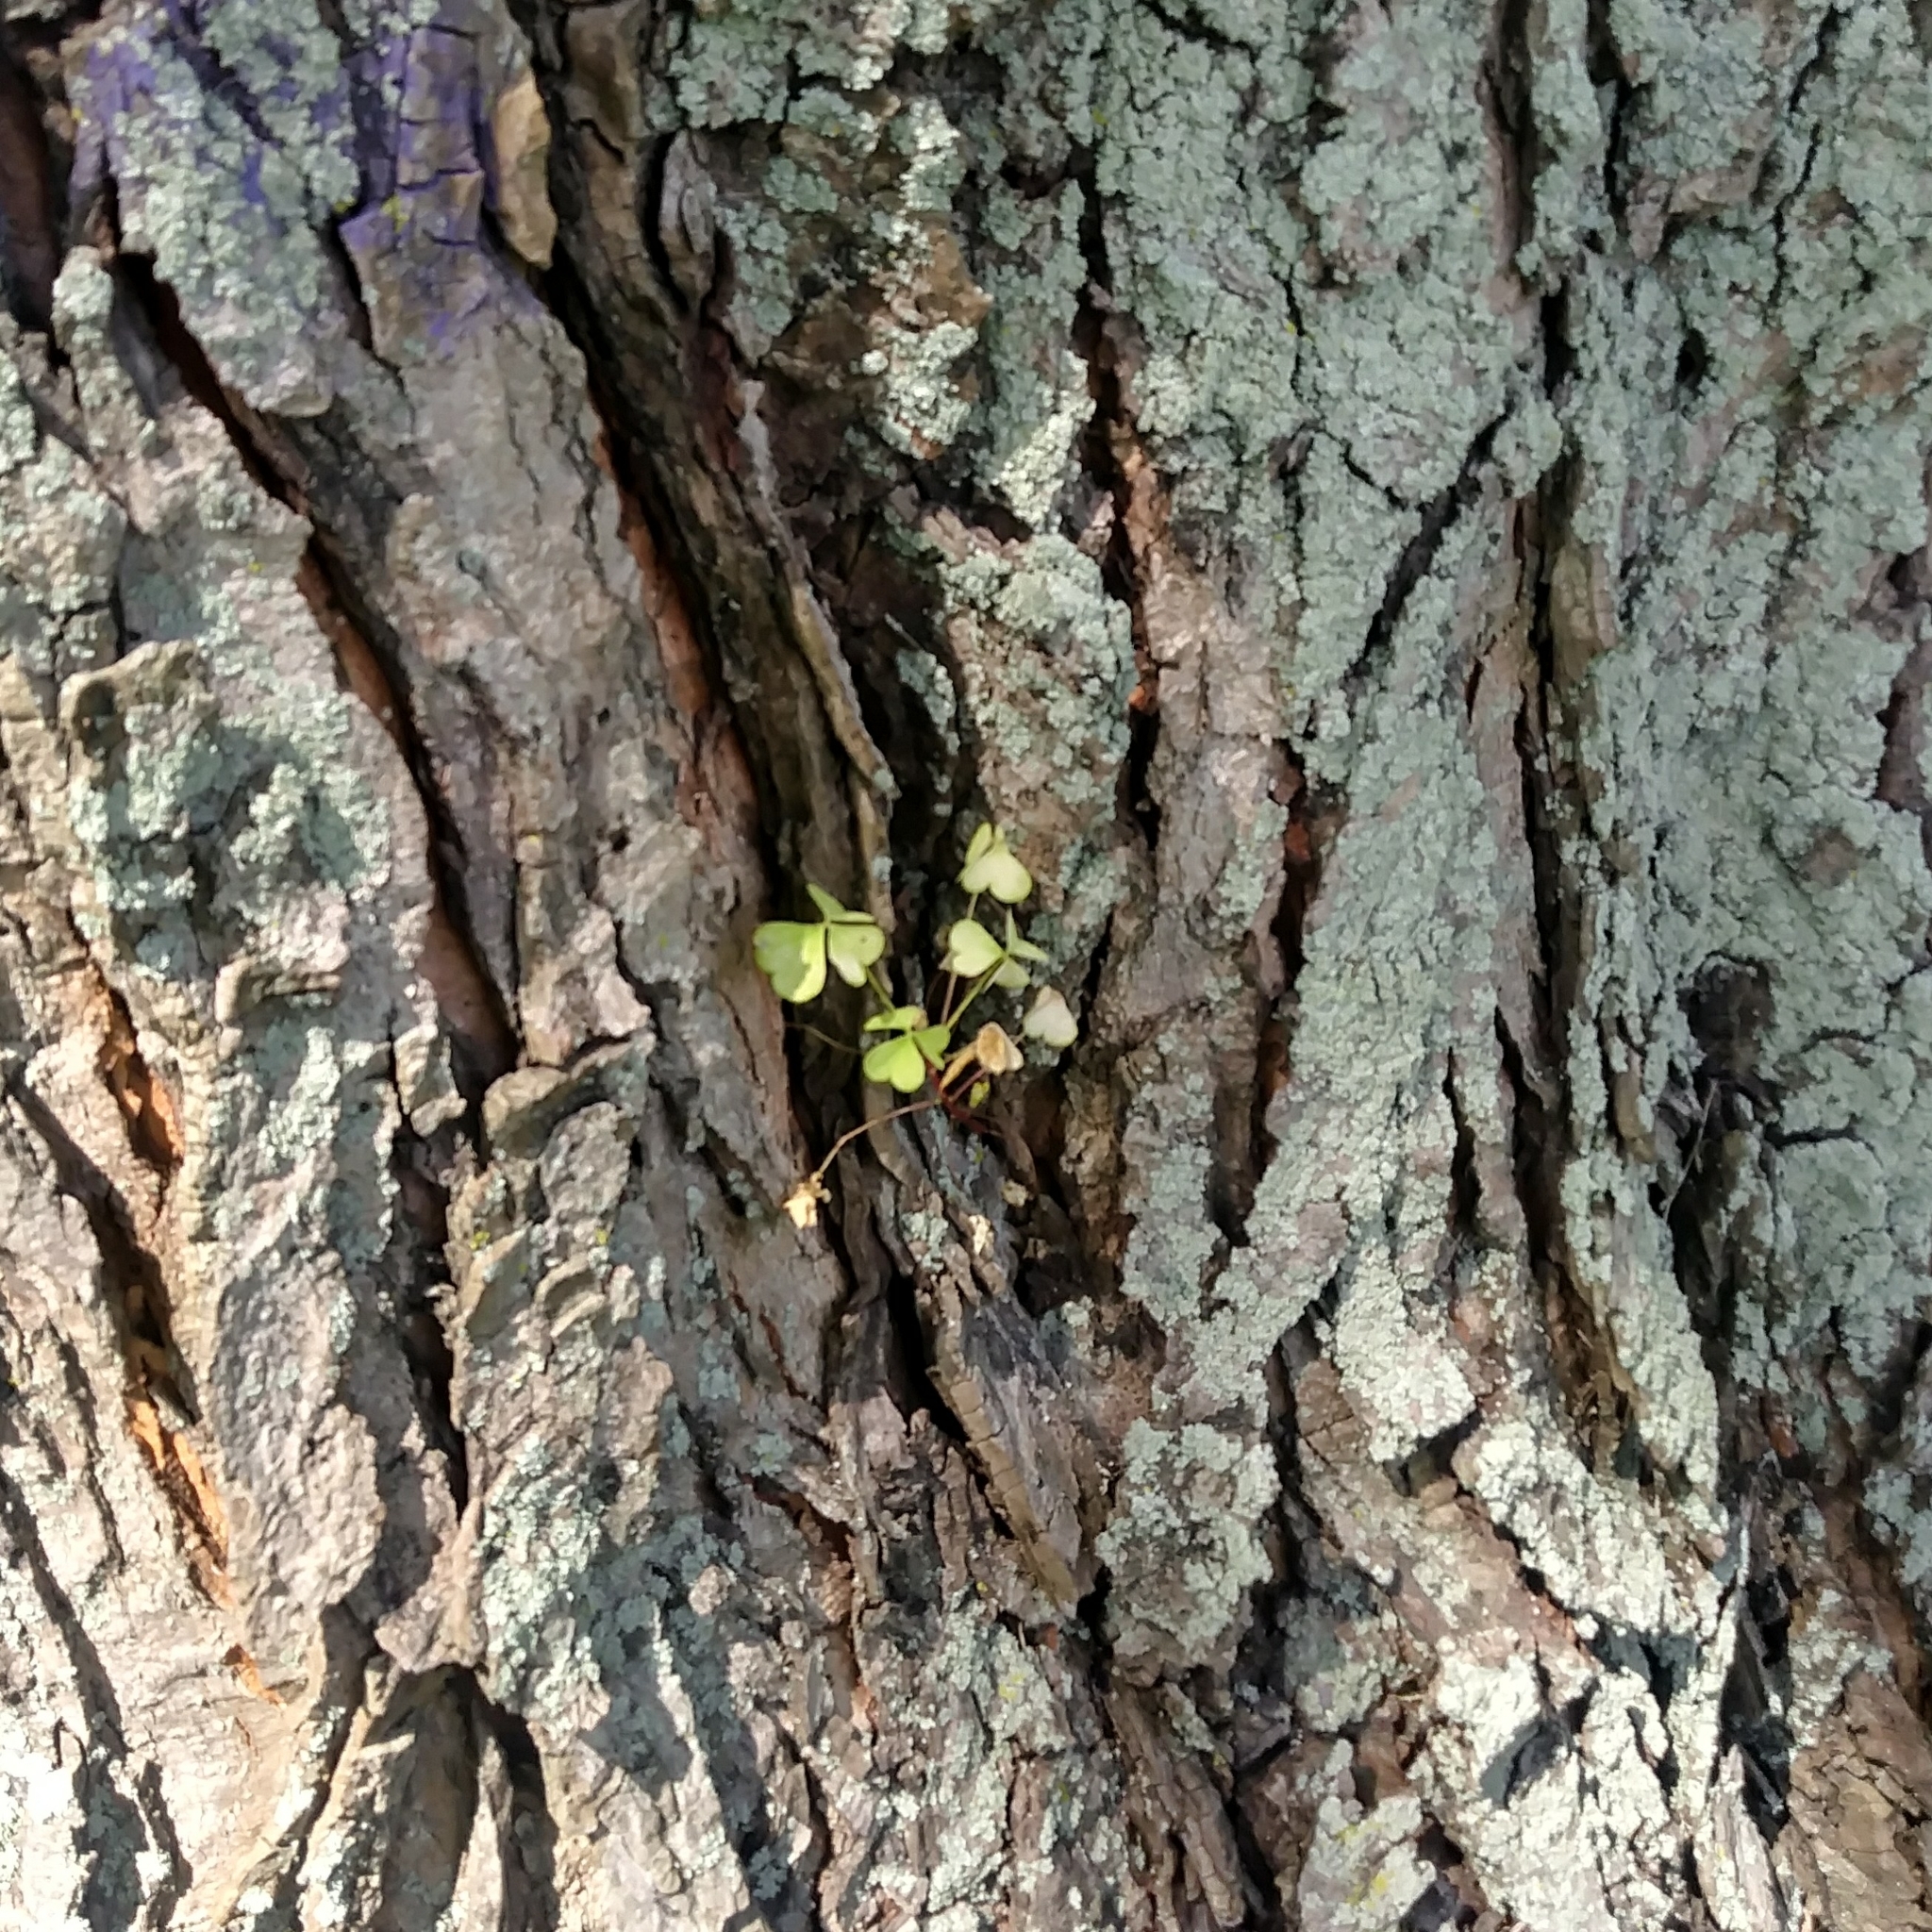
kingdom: Plantae
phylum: Tracheophyta
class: Magnoliopsida
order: Oxalidales
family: Oxalidaceae
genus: Oxalis
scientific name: Oxalis
